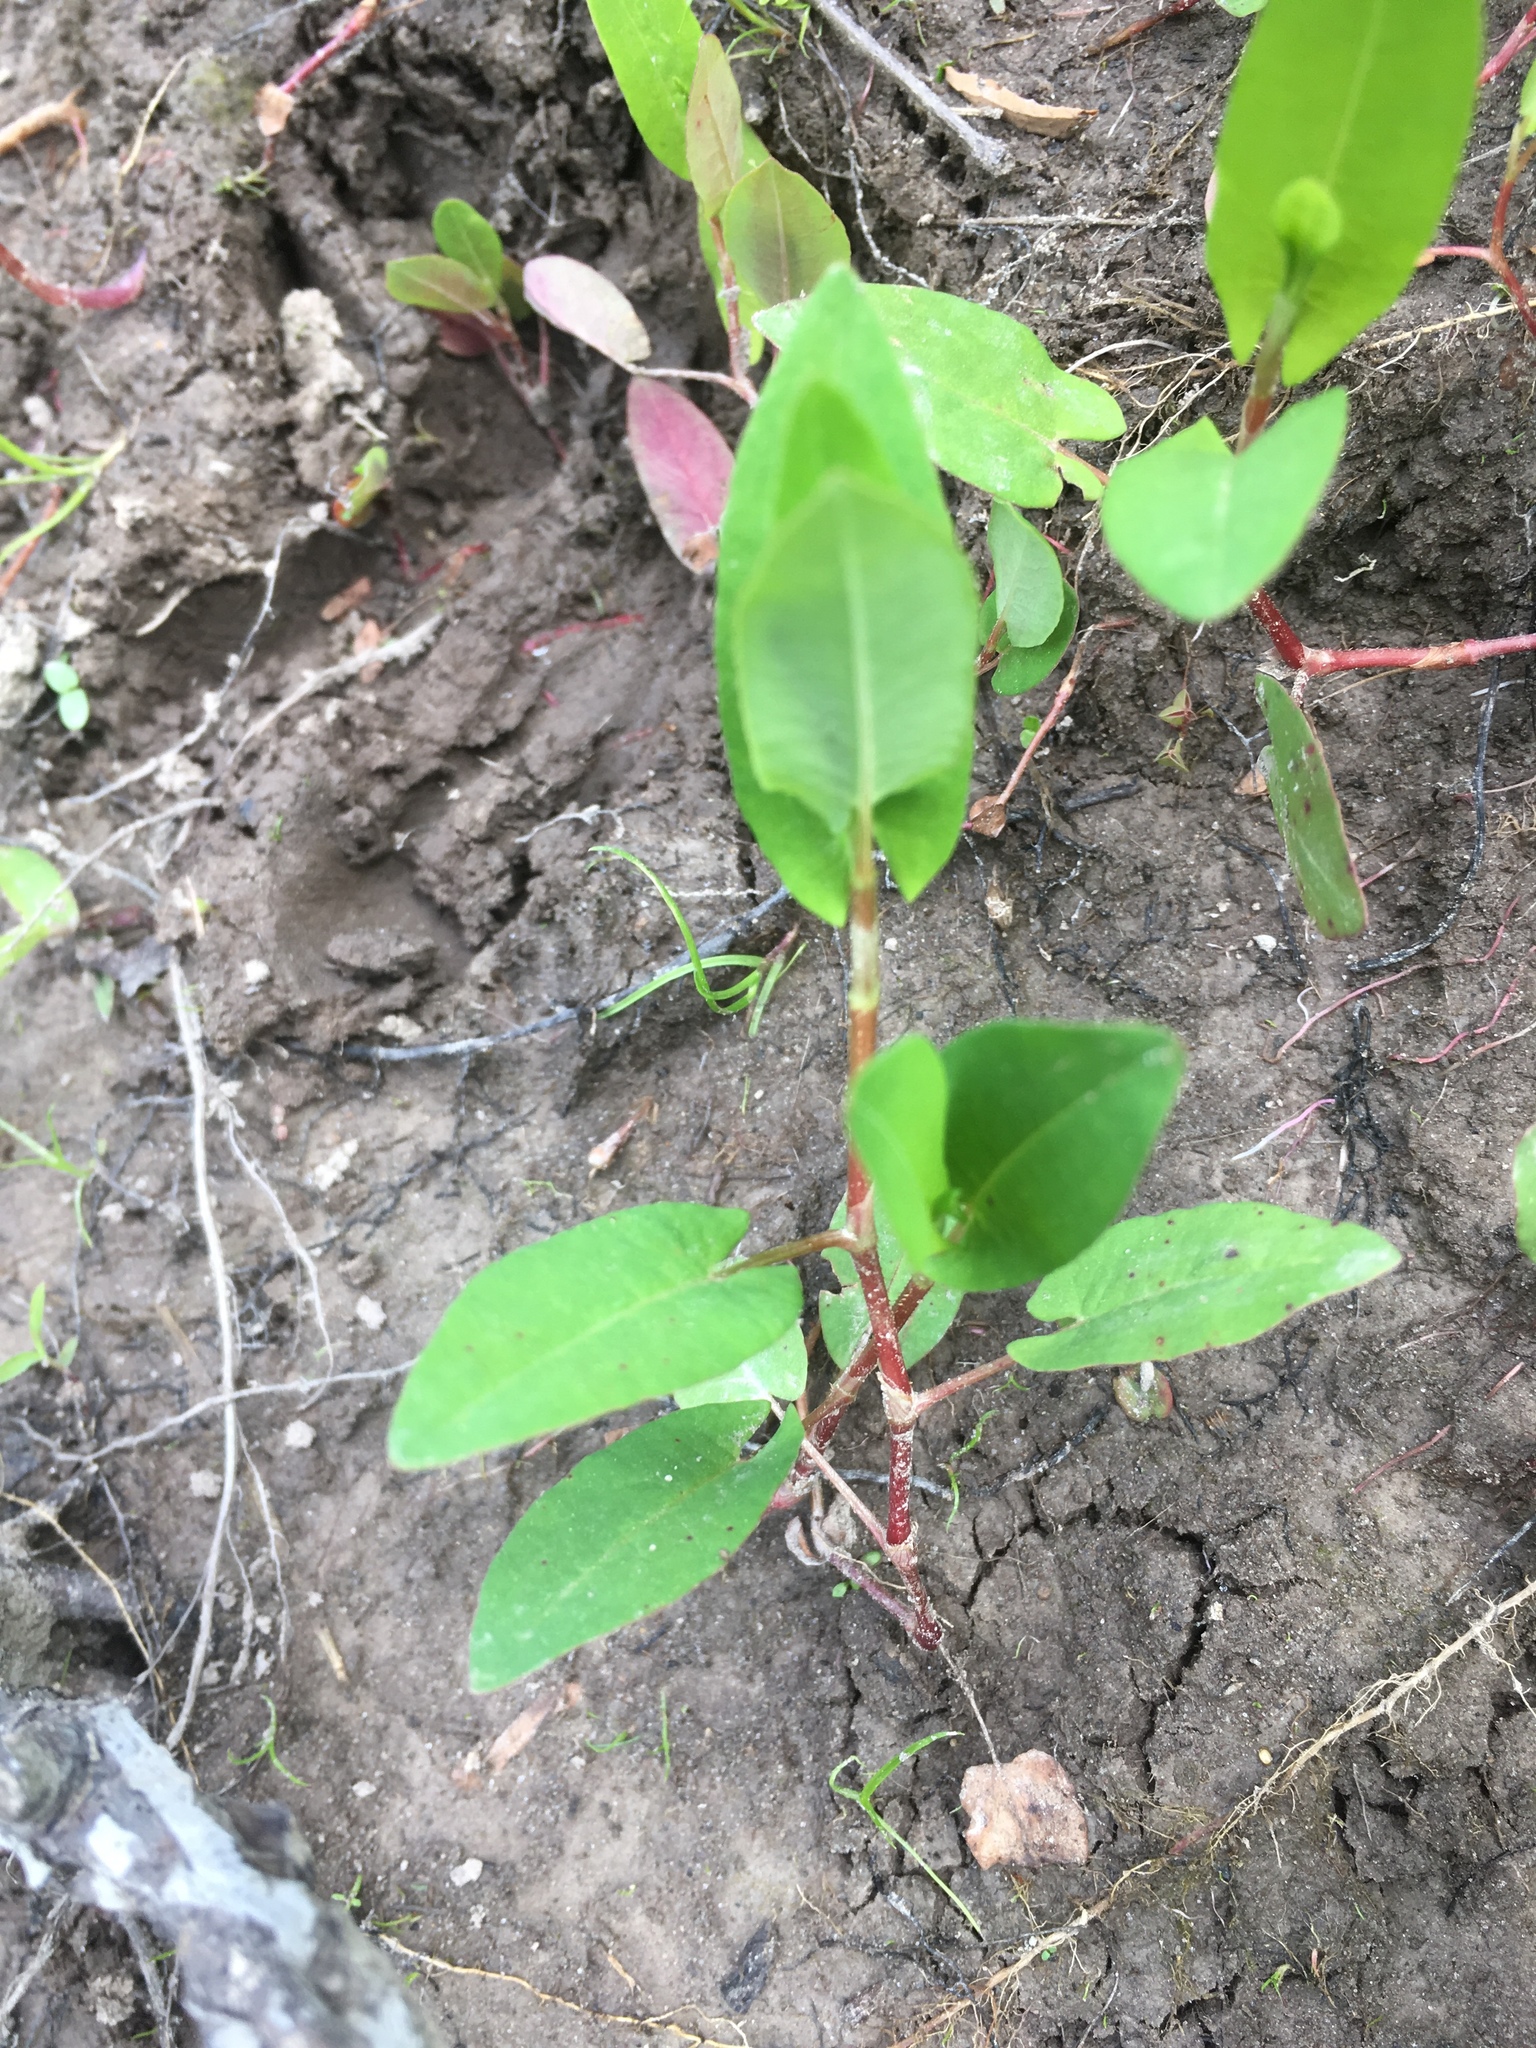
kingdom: Plantae
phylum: Tracheophyta
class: Magnoliopsida
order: Caryophyllales
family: Polygonaceae
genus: Persicaria
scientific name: Persicaria sagittata
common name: American tearthumb
